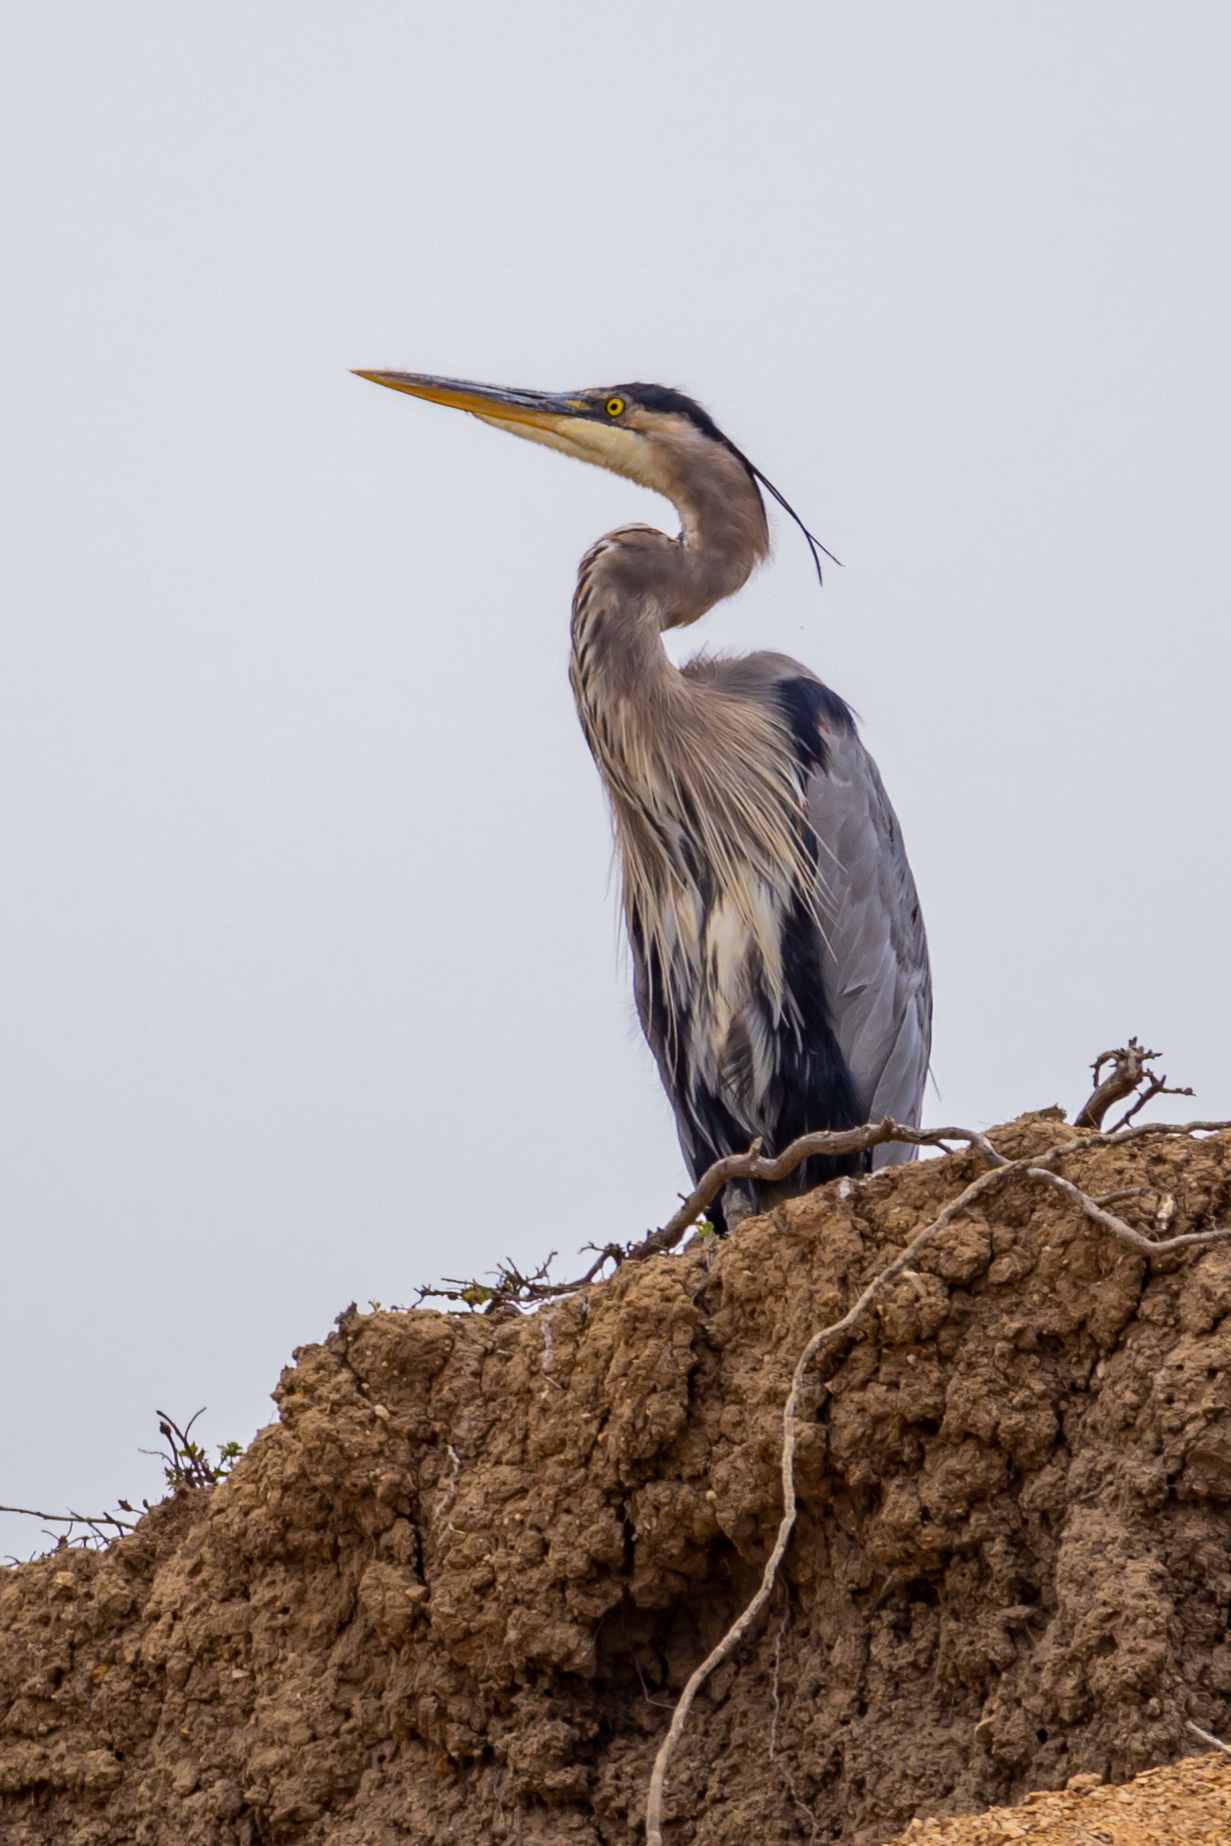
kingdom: Animalia
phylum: Chordata
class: Aves
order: Pelecaniformes
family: Ardeidae
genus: Ardea
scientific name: Ardea herodias
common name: Great blue heron
